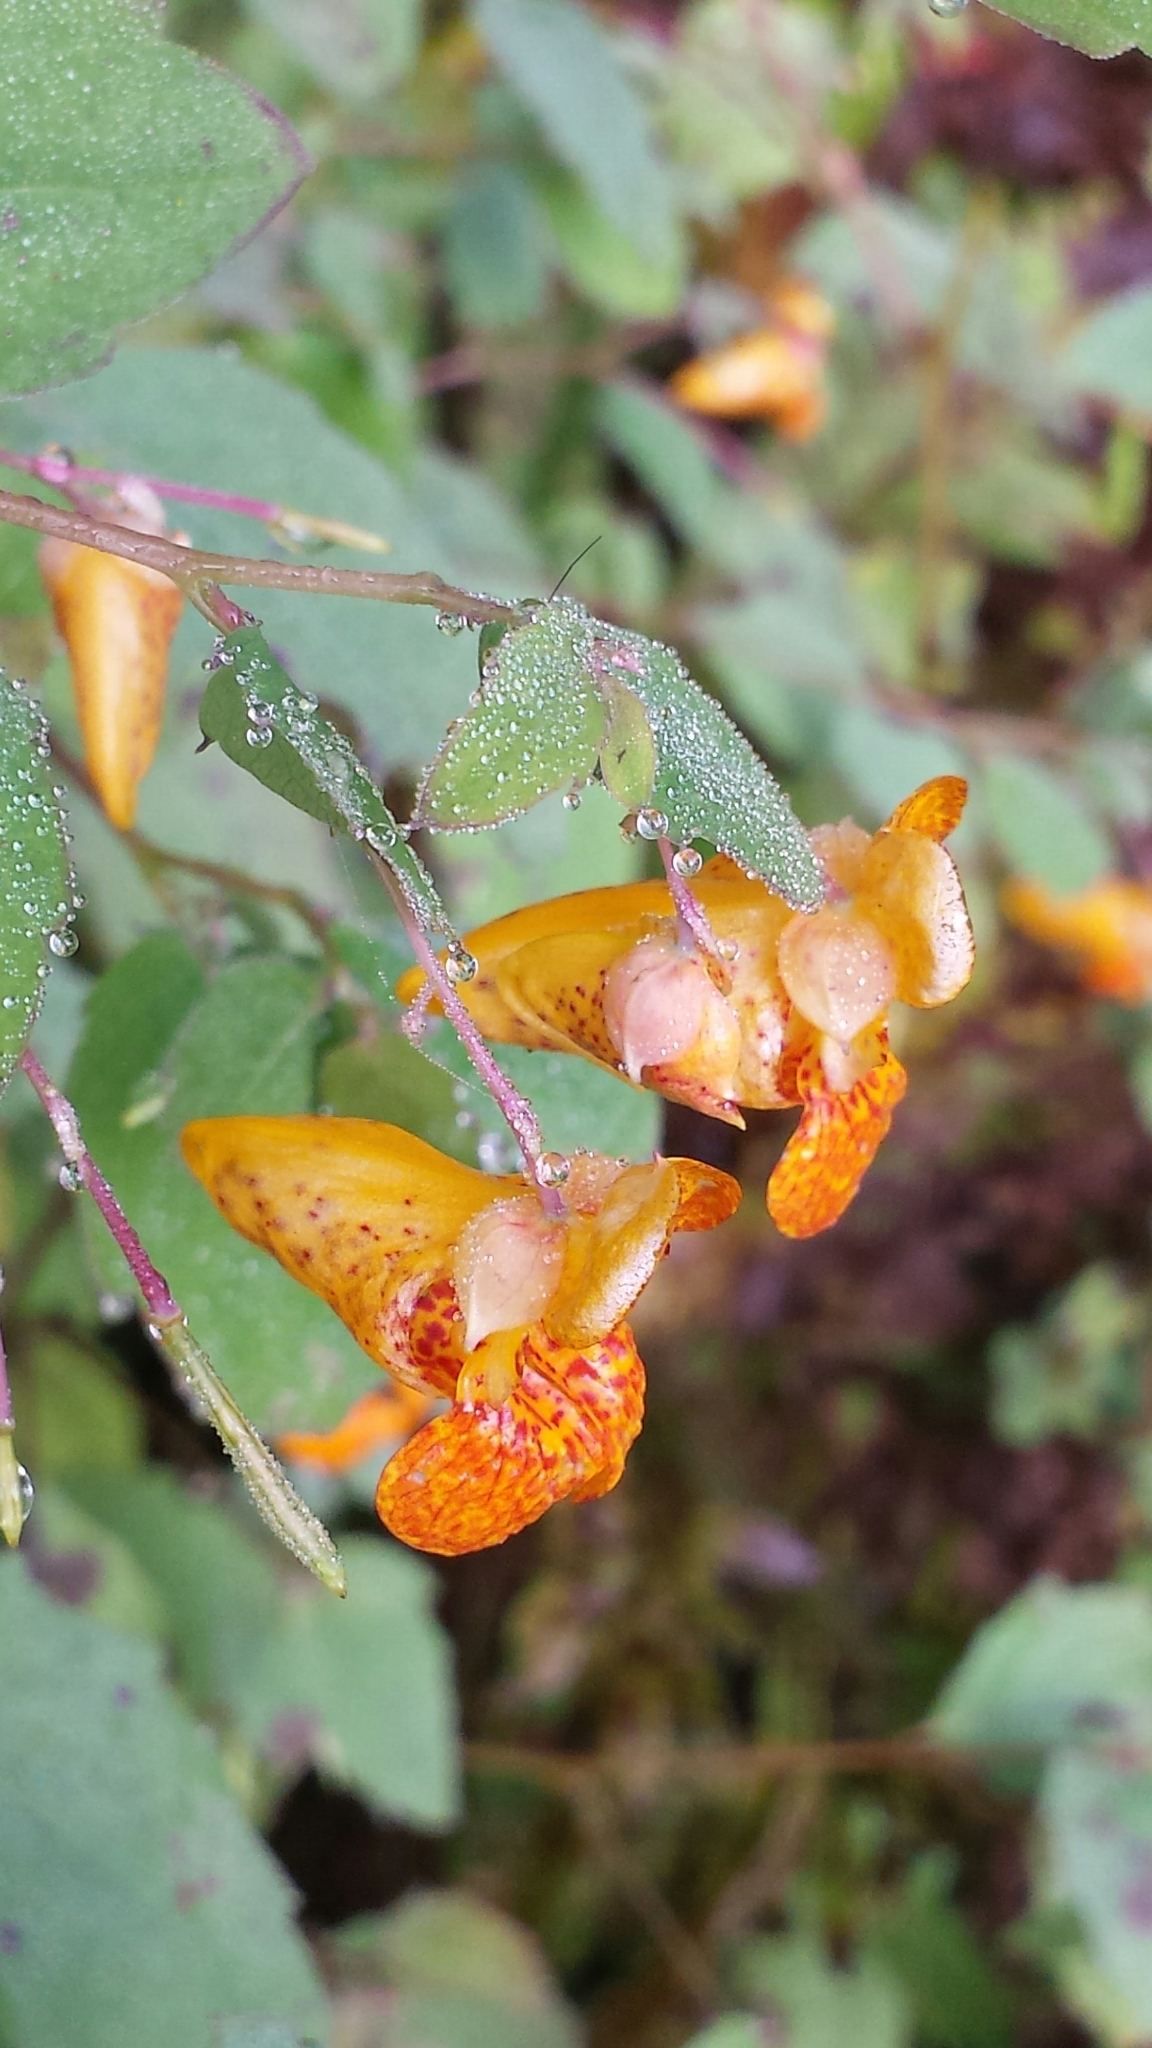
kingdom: Plantae
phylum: Tracheophyta
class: Magnoliopsida
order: Ericales
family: Balsaminaceae
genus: Impatiens
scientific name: Impatiens capensis
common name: Orange balsam
